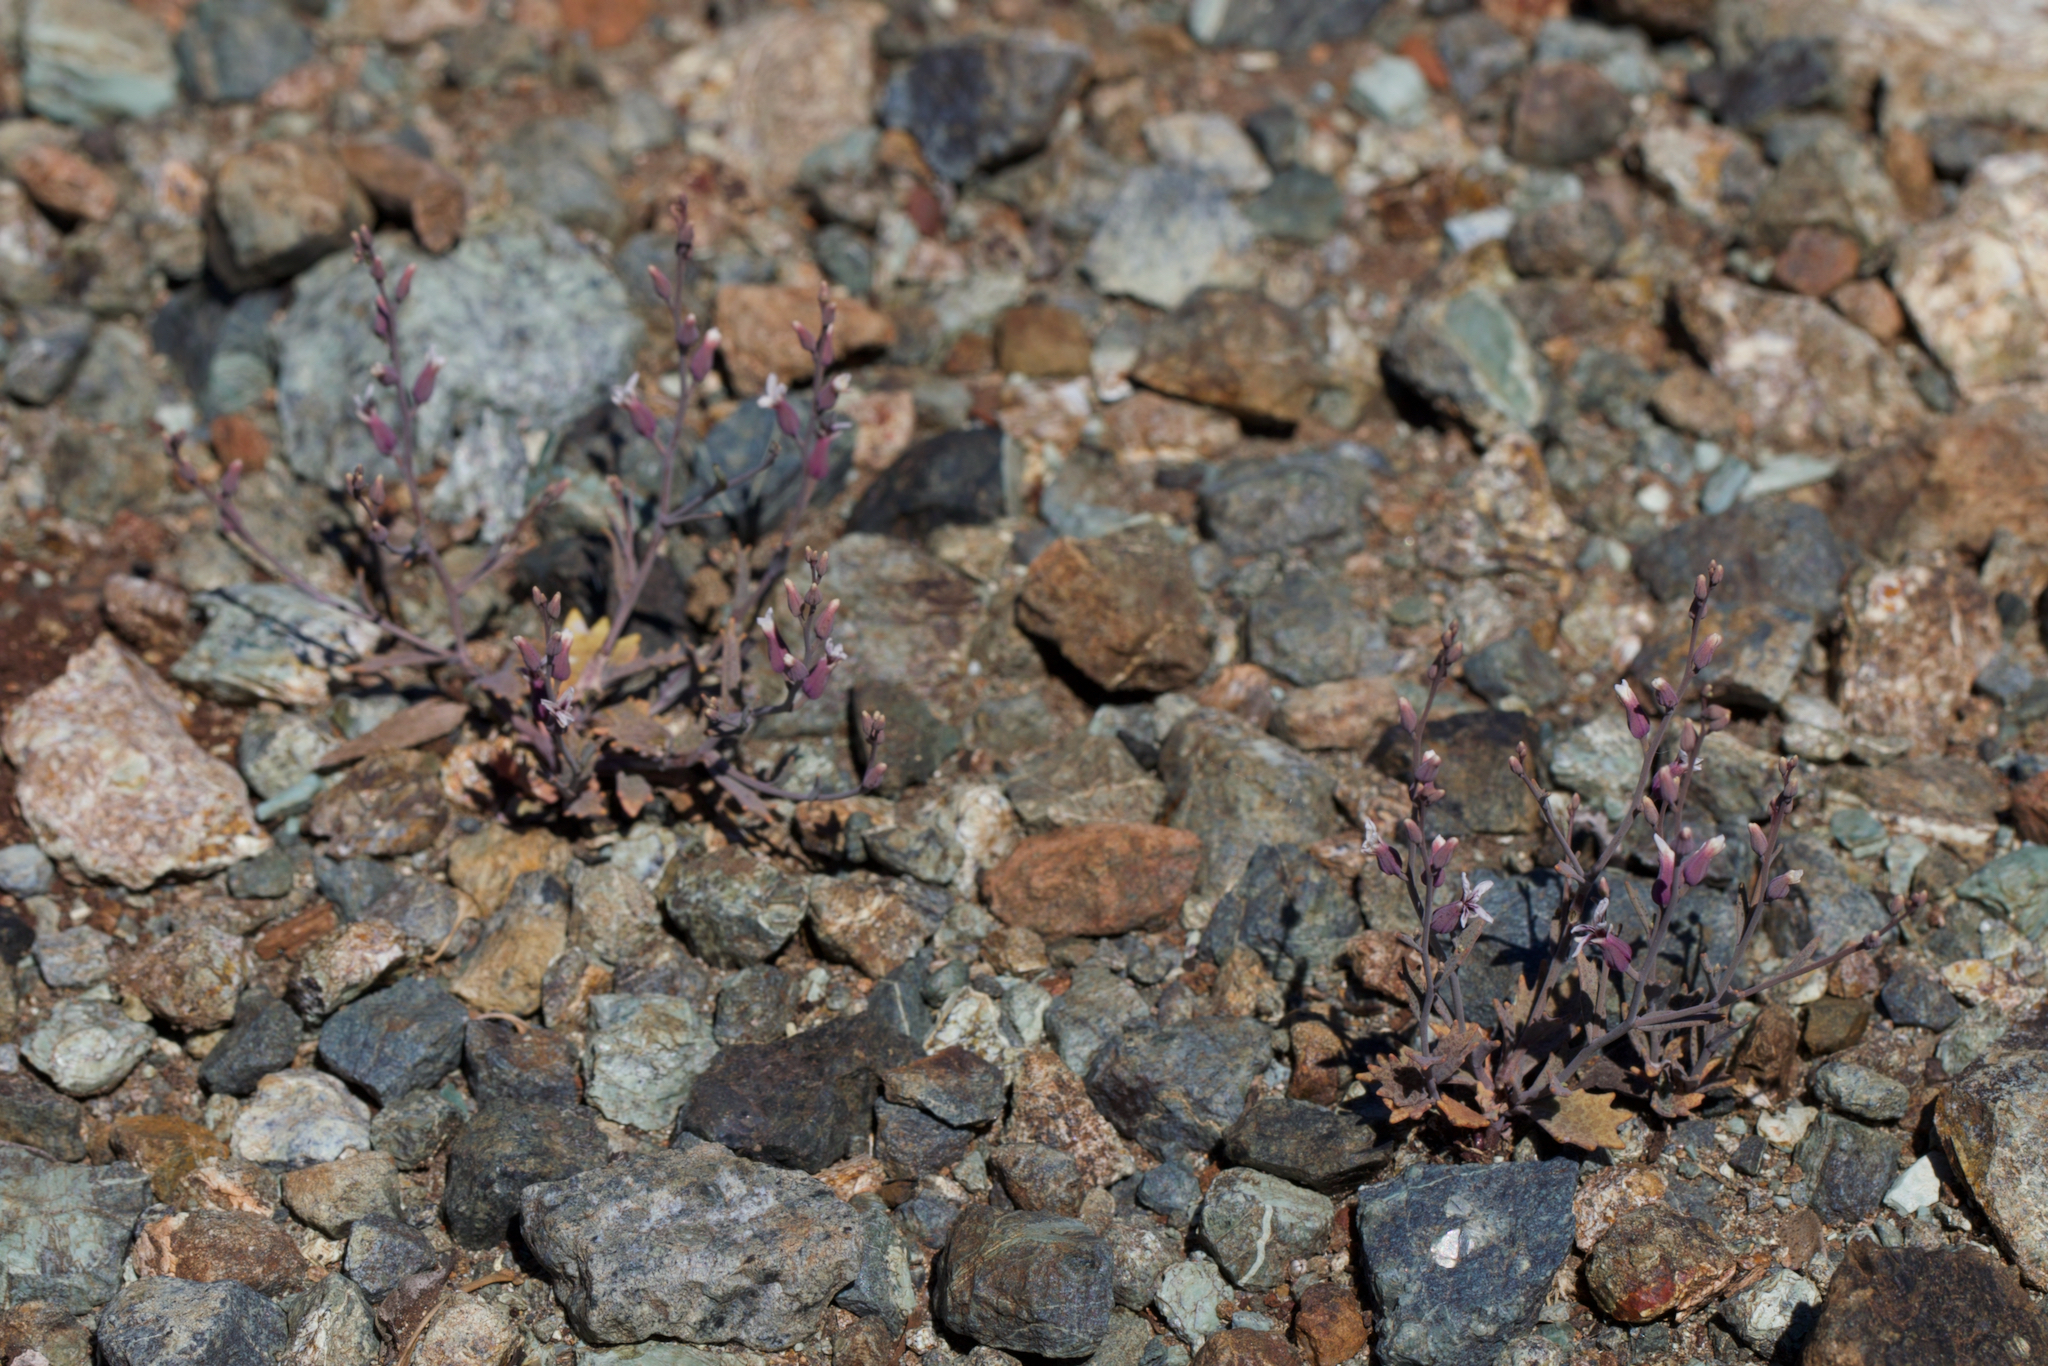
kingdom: Plantae
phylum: Tracheophyta
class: Magnoliopsida
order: Brassicales
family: Brassicaceae
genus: Streptanthus
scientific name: Streptanthus batrachopus
